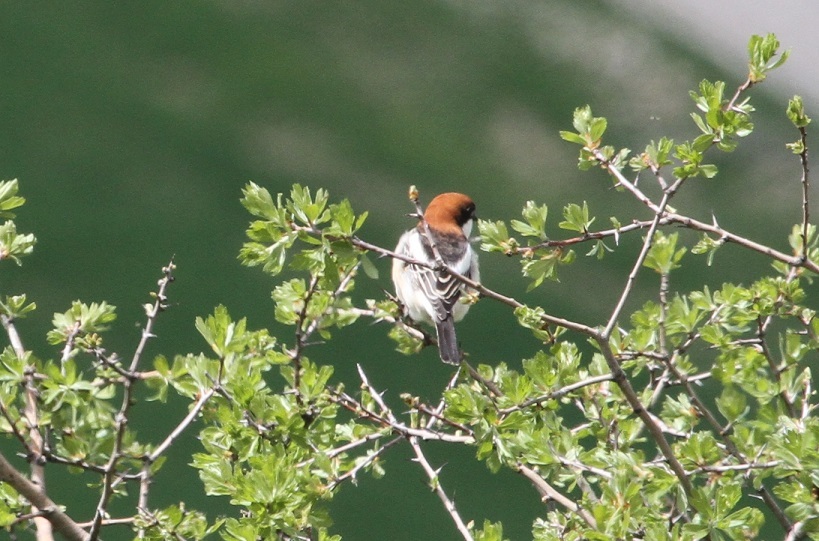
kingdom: Animalia
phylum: Chordata
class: Aves
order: Passeriformes
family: Laniidae
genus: Lanius
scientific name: Lanius senator
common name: Woodchat shrike
